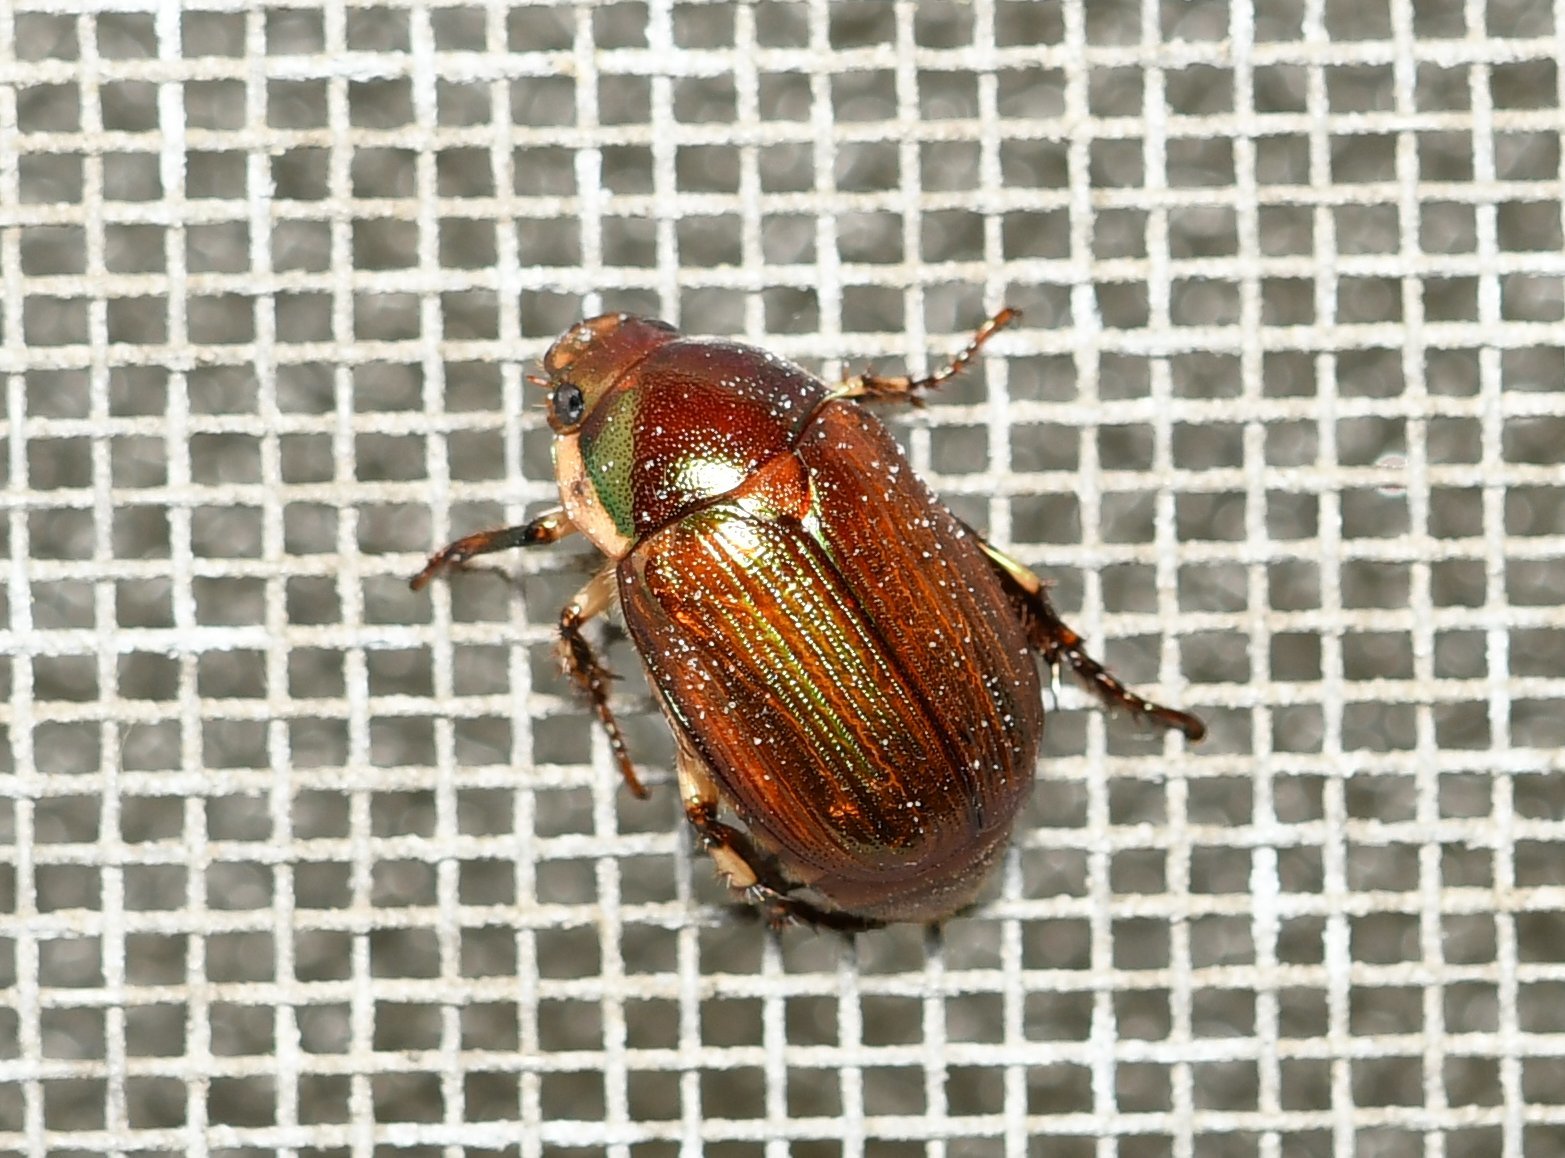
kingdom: Animalia
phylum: Arthropoda
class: Insecta
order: Coleoptera
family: Scarabaeidae
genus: Callistethus
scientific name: Callistethus marginatus
